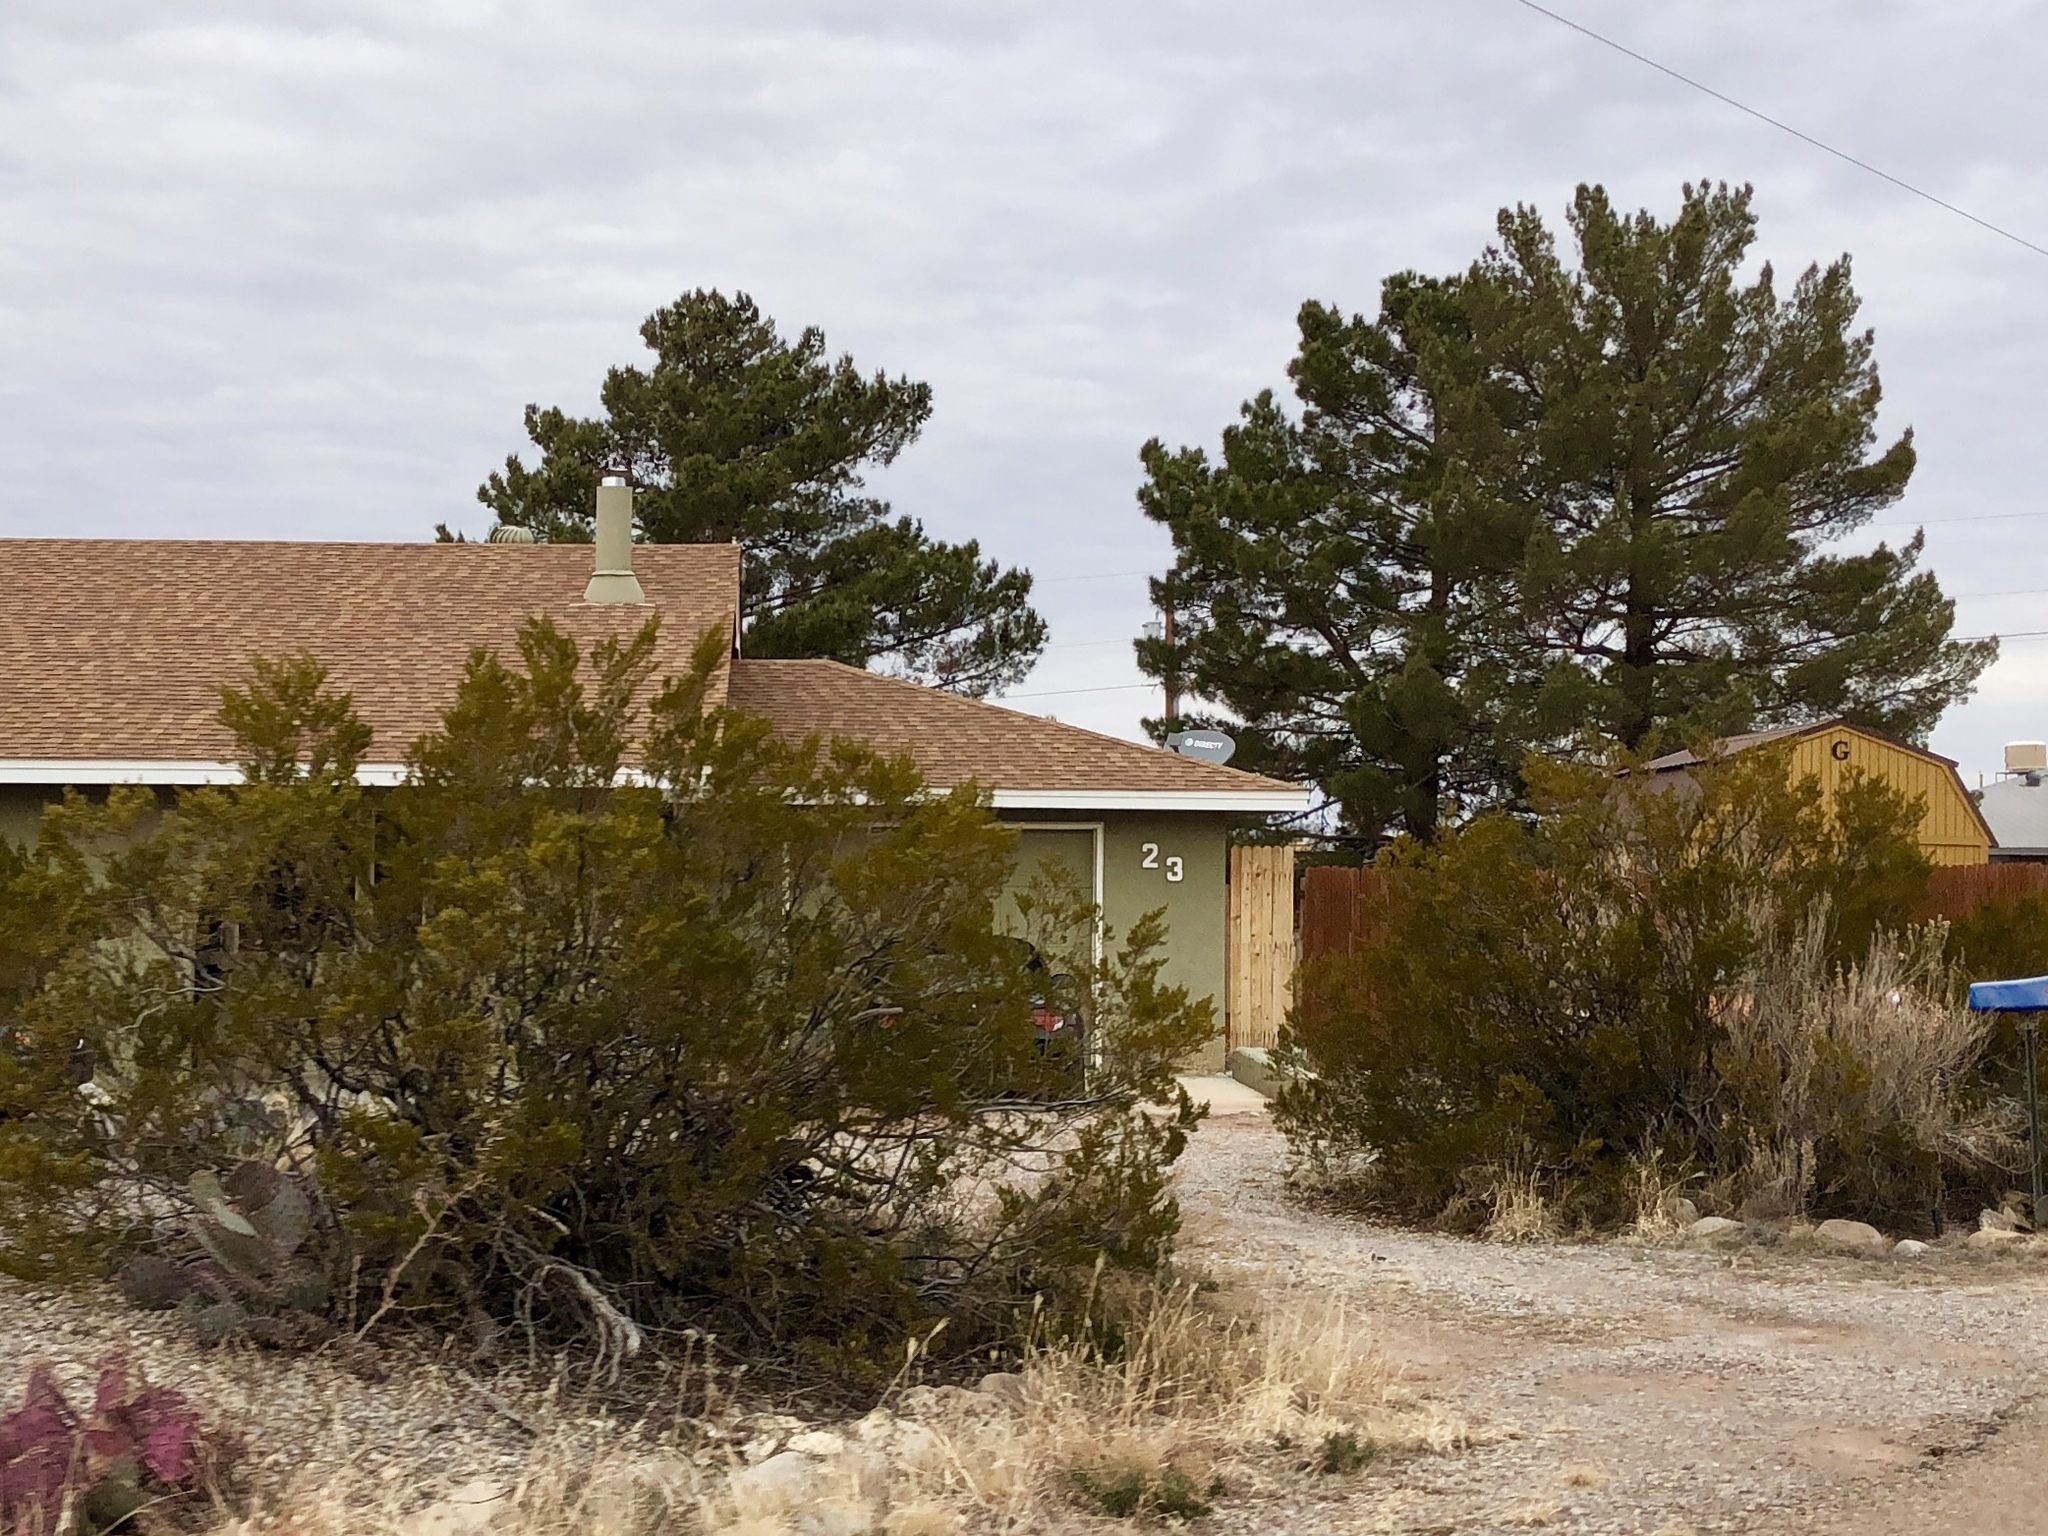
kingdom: Plantae
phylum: Tracheophyta
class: Magnoliopsida
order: Zygophyllales
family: Zygophyllaceae
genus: Larrea
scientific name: Larrea tridentata
